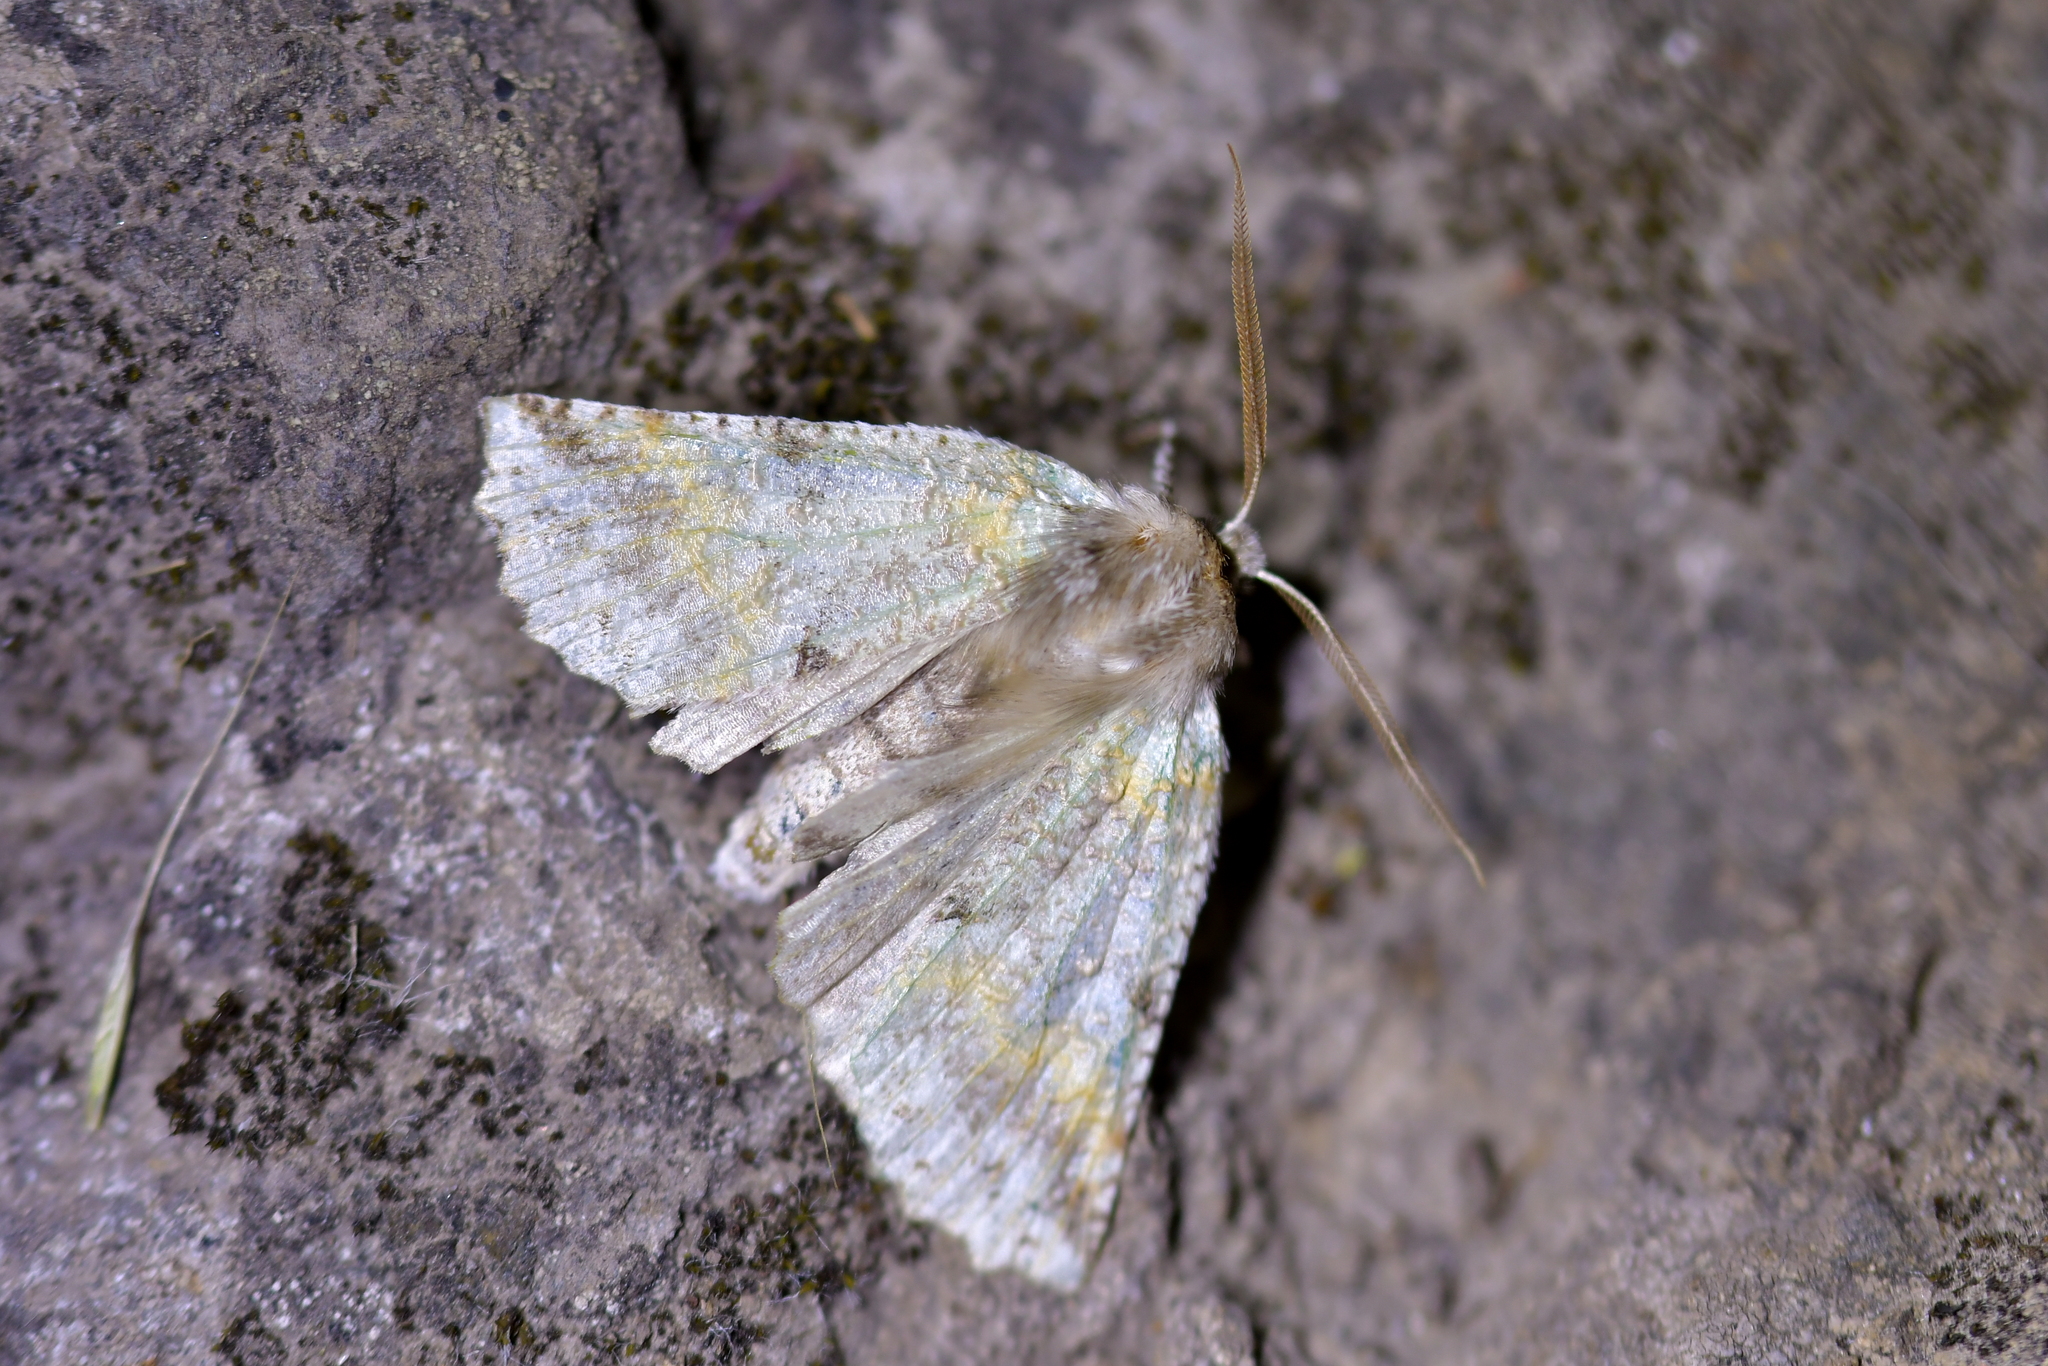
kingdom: Animalia
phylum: Arthropoda
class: Insecta
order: Lepidoptera
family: Geometridae
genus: Declana
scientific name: Declana floccosa
